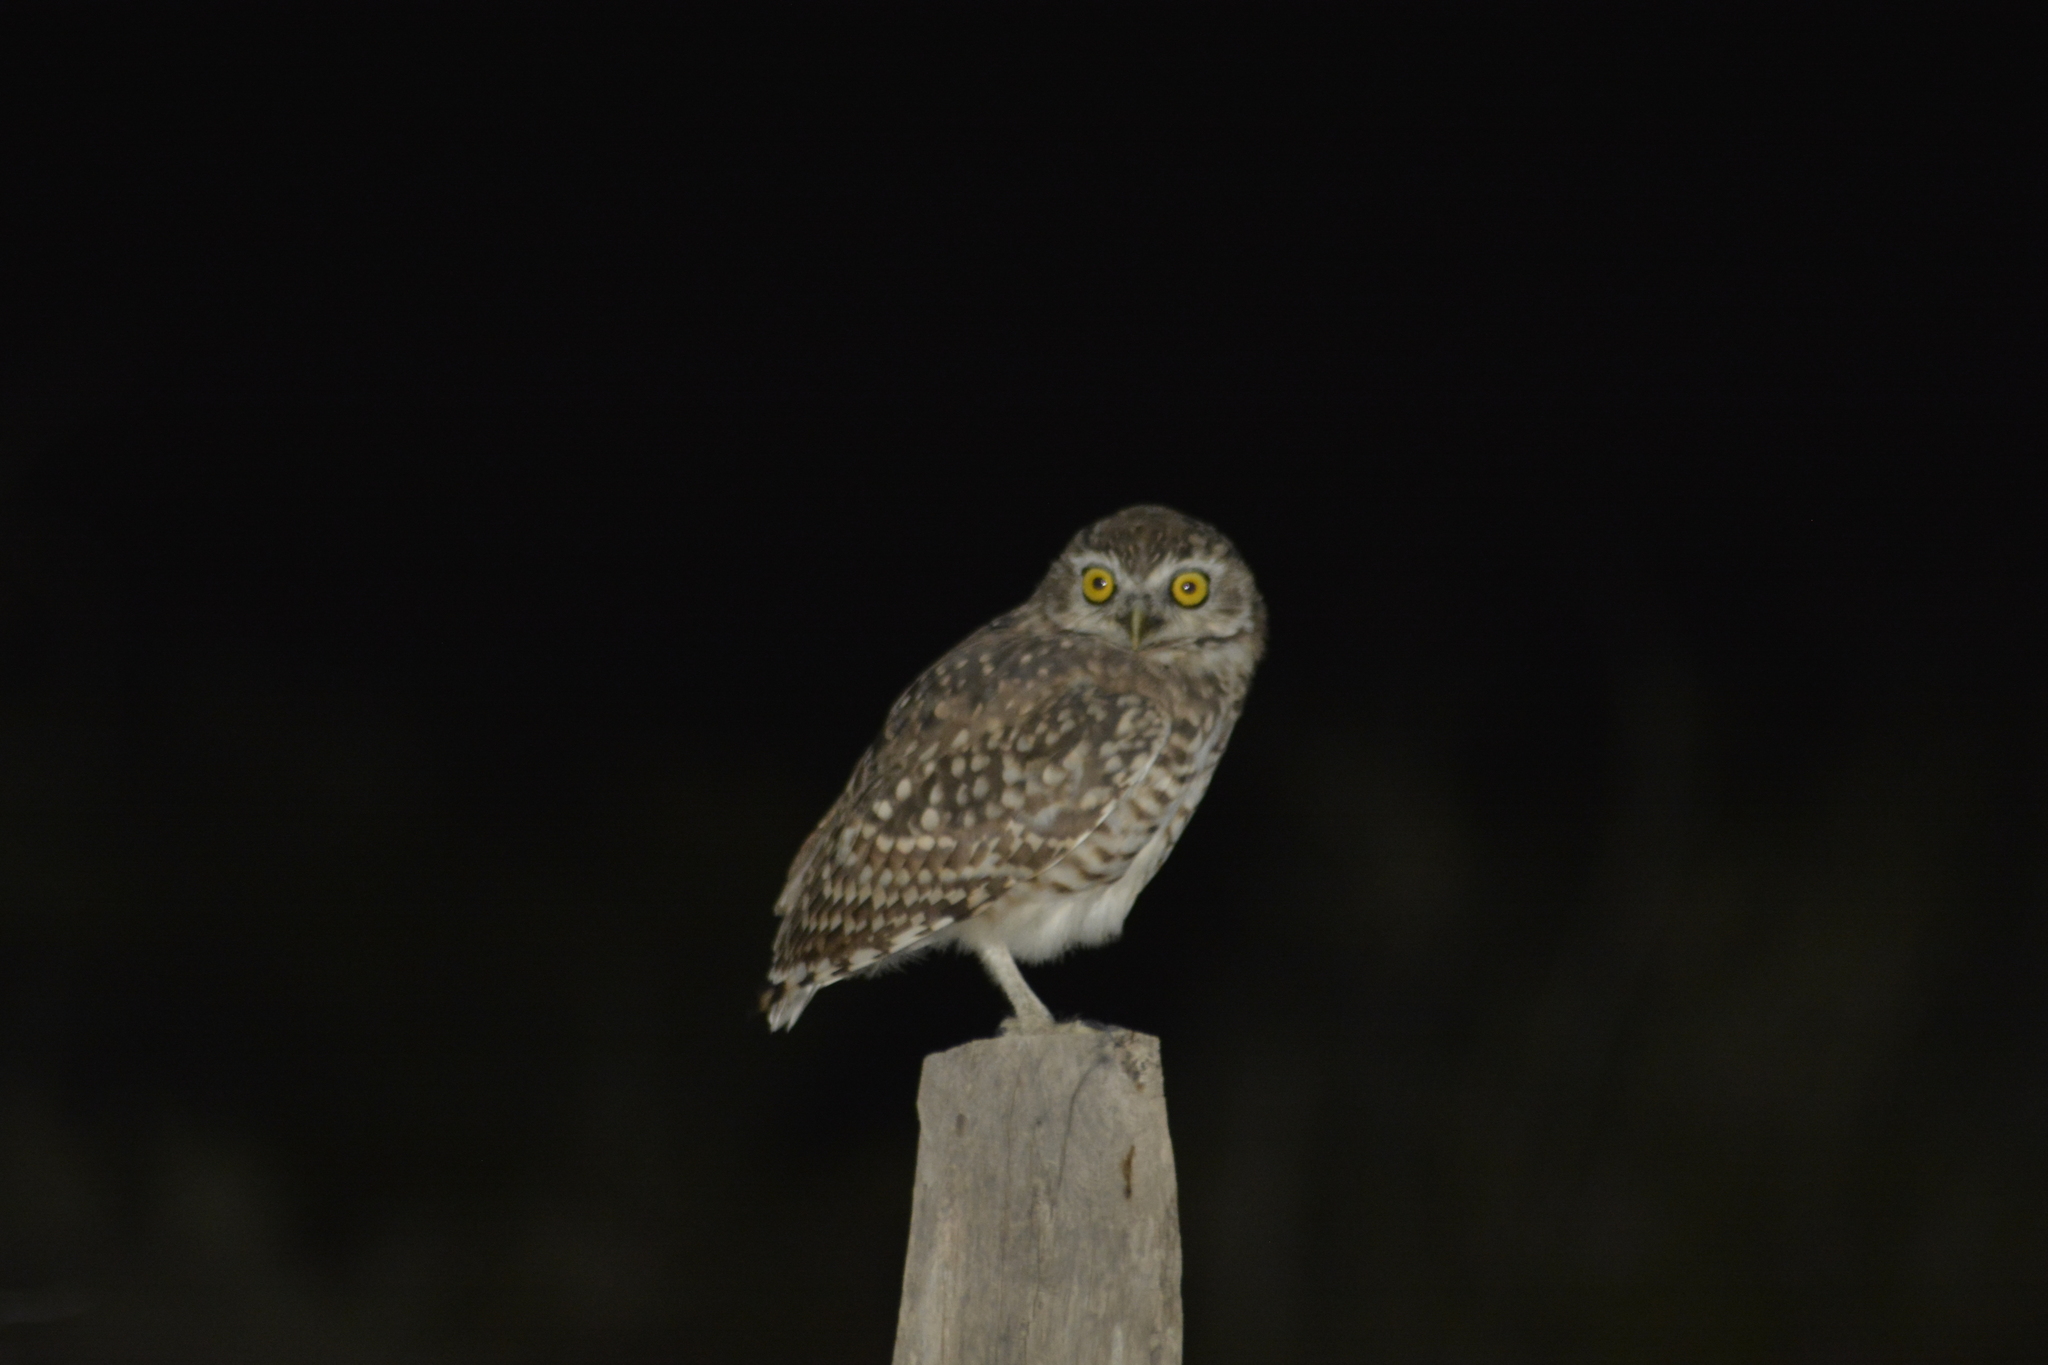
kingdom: Animalia
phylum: Chordata
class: Aves
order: Strigiformes
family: Strigidae
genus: Athene
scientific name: Athene cunicularia
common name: Burrowing owl
